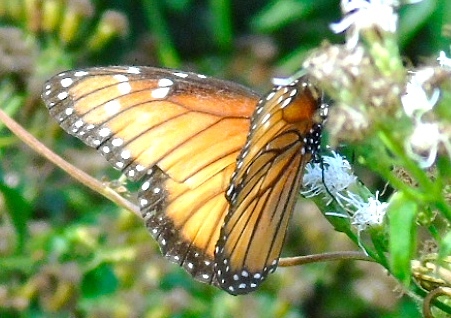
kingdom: Animalia
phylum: Arthropoda
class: Insecta
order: Lepidoptera
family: Nymphalidae
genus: Danaus
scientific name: Danaus eresimus
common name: Soldier
